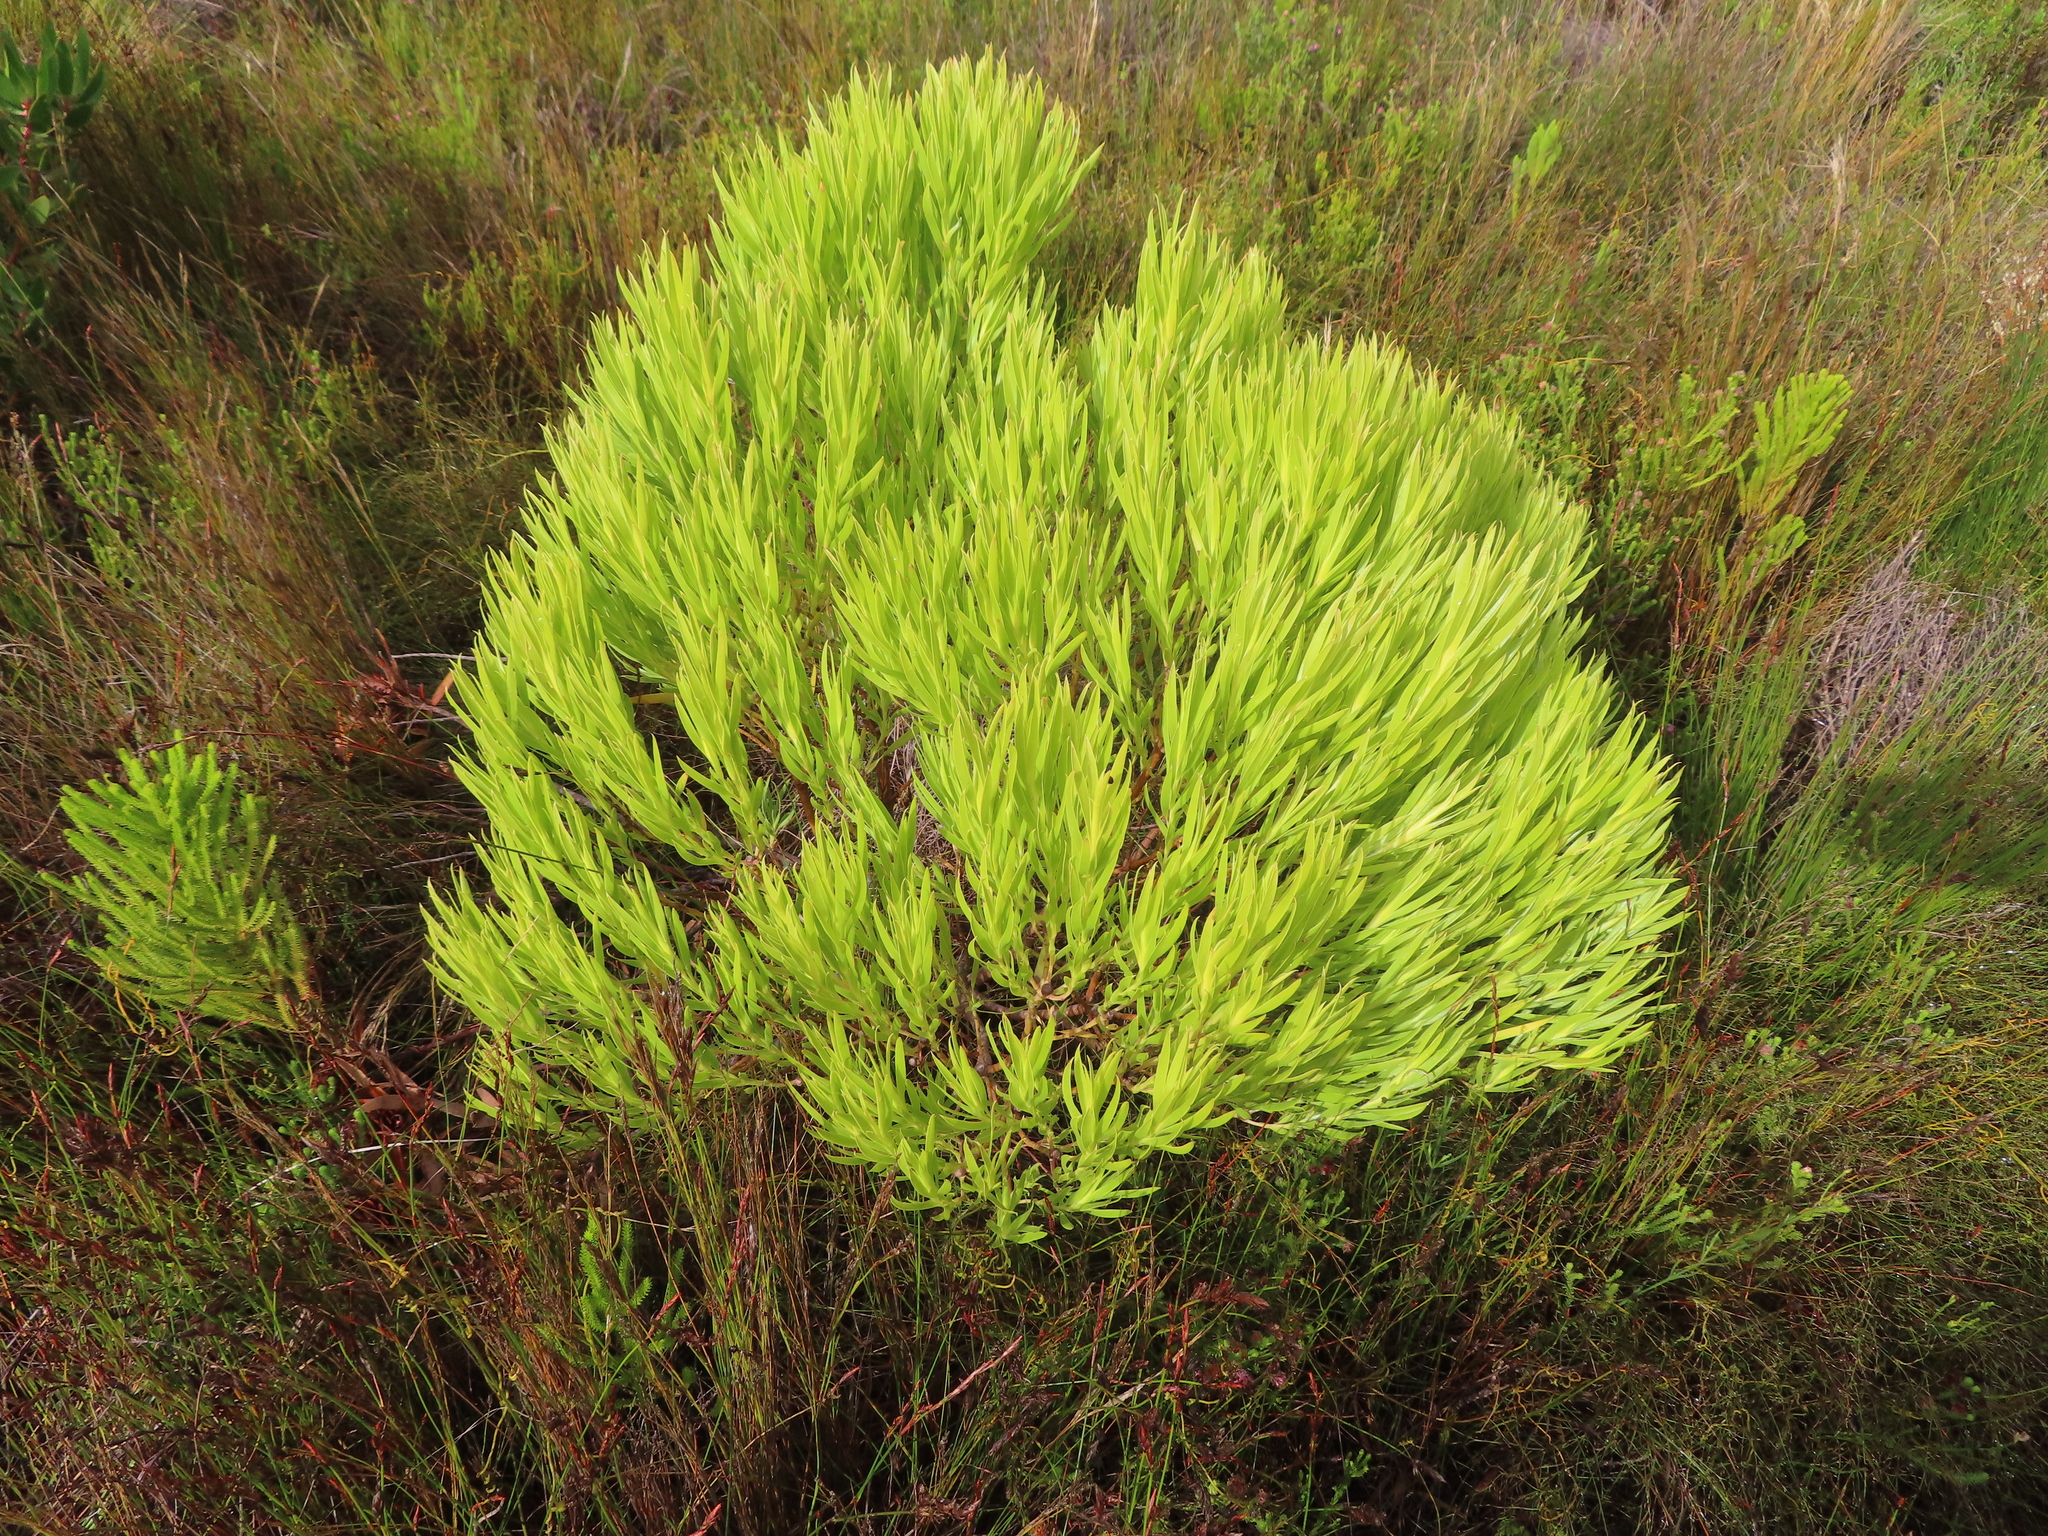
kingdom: Plantae
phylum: Tracheophyta
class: Magnoliopsida
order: Proteales
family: Proteaceae
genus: Leucadendron
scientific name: Leucadendron xanthoconus
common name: Sickle-leaf conebush
